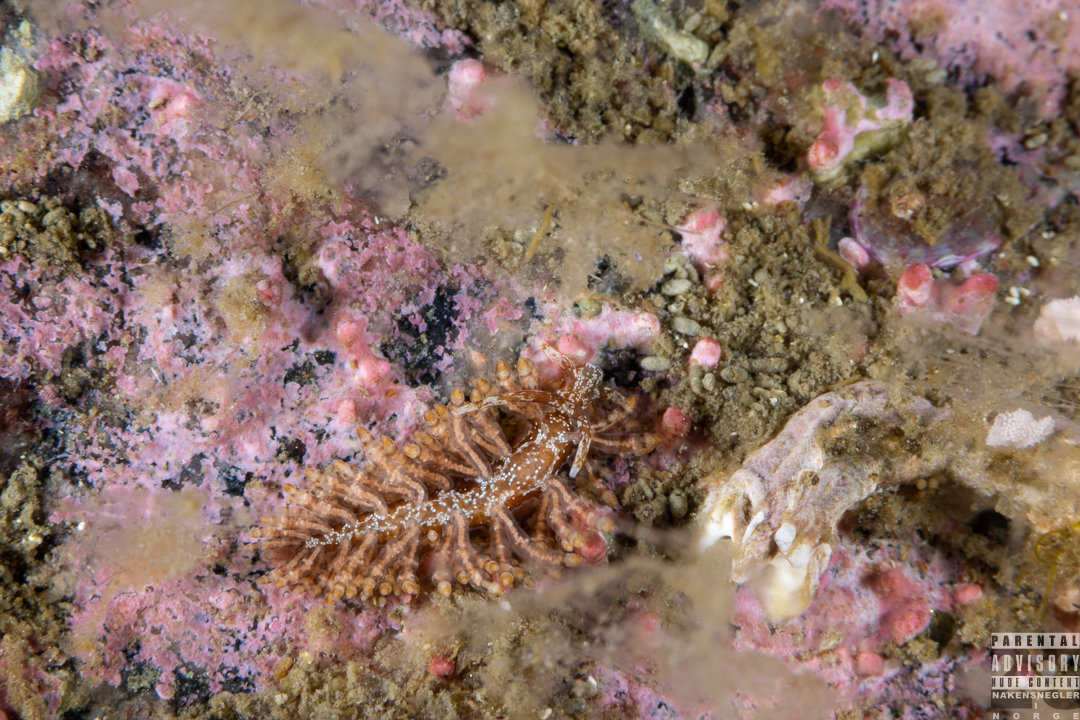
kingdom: Animalia
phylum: Mollusca
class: Gastropoda
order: Nudibranchia
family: Eubranchidae
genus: Eubranchus
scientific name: Eubranchus vittatus
